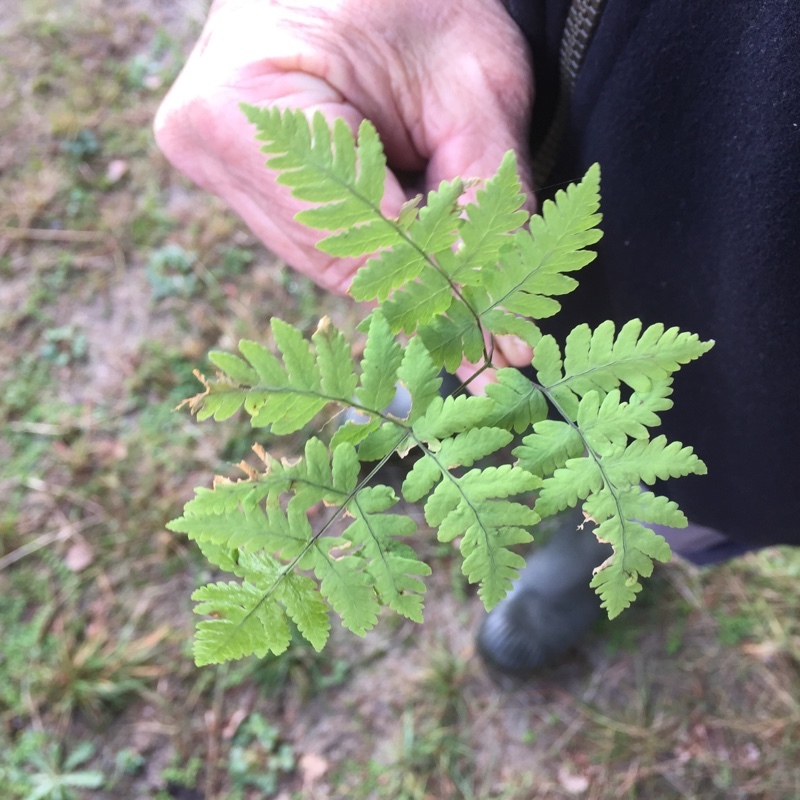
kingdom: Plantae
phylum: Tracheophyta
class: Polypodiopsida
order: Polypodiales
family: Cystopteridaceae
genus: Gymnocarpium
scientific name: Gymnocarpium dryopteris
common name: Oak fern
